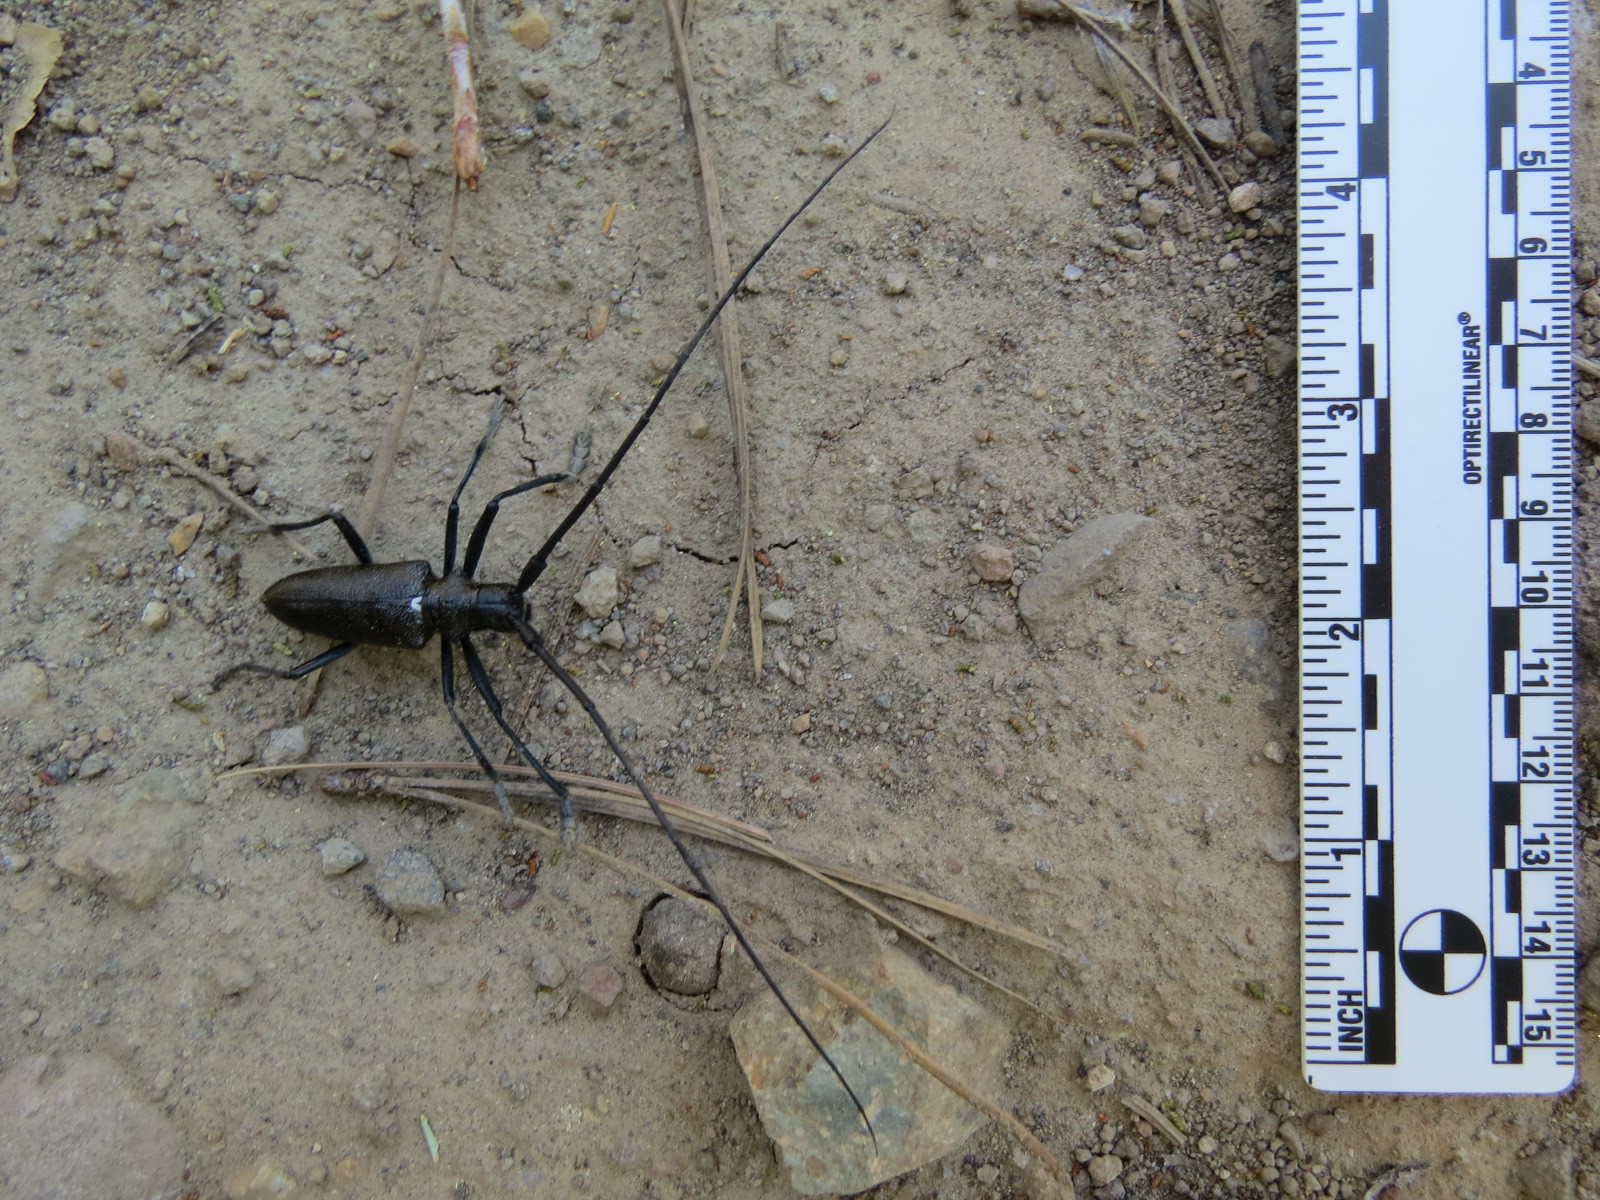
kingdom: Animalia
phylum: Arthropoda
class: Insecta
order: Coleoptera
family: Cerambycidae
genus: Monochamus
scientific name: Monochamus scutellatus
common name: White-spotted sawyer beetle
